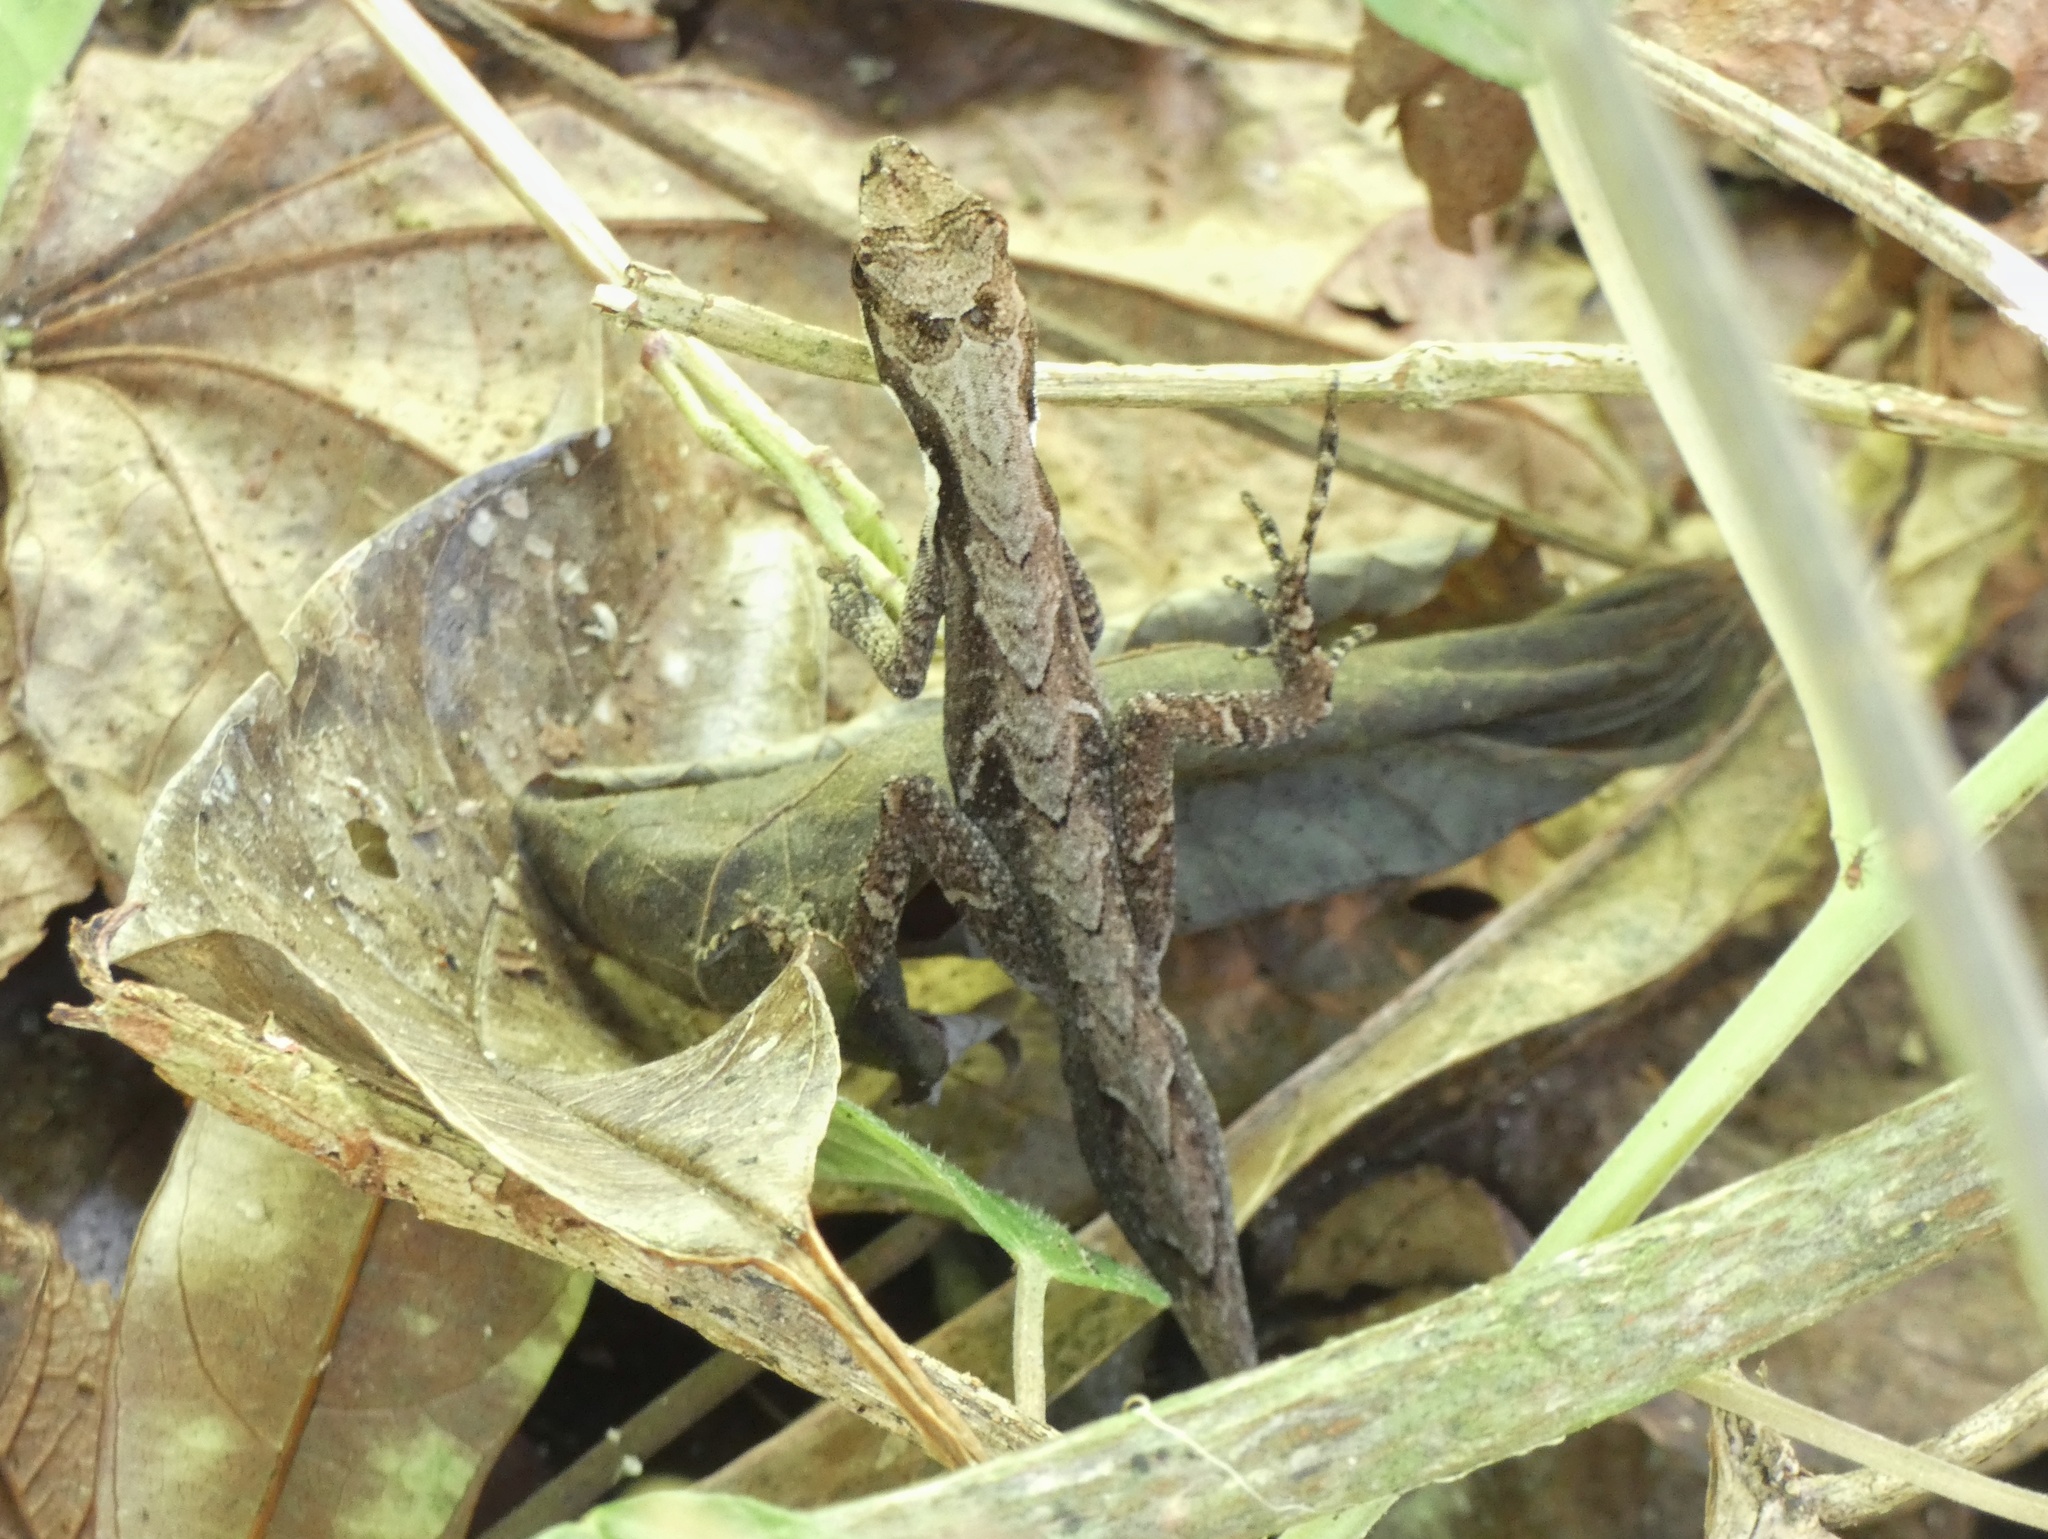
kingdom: Animalia
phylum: Chordata
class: Squamata
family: Dactyloidae
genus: Anolis
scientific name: Anolis magnaphallus
